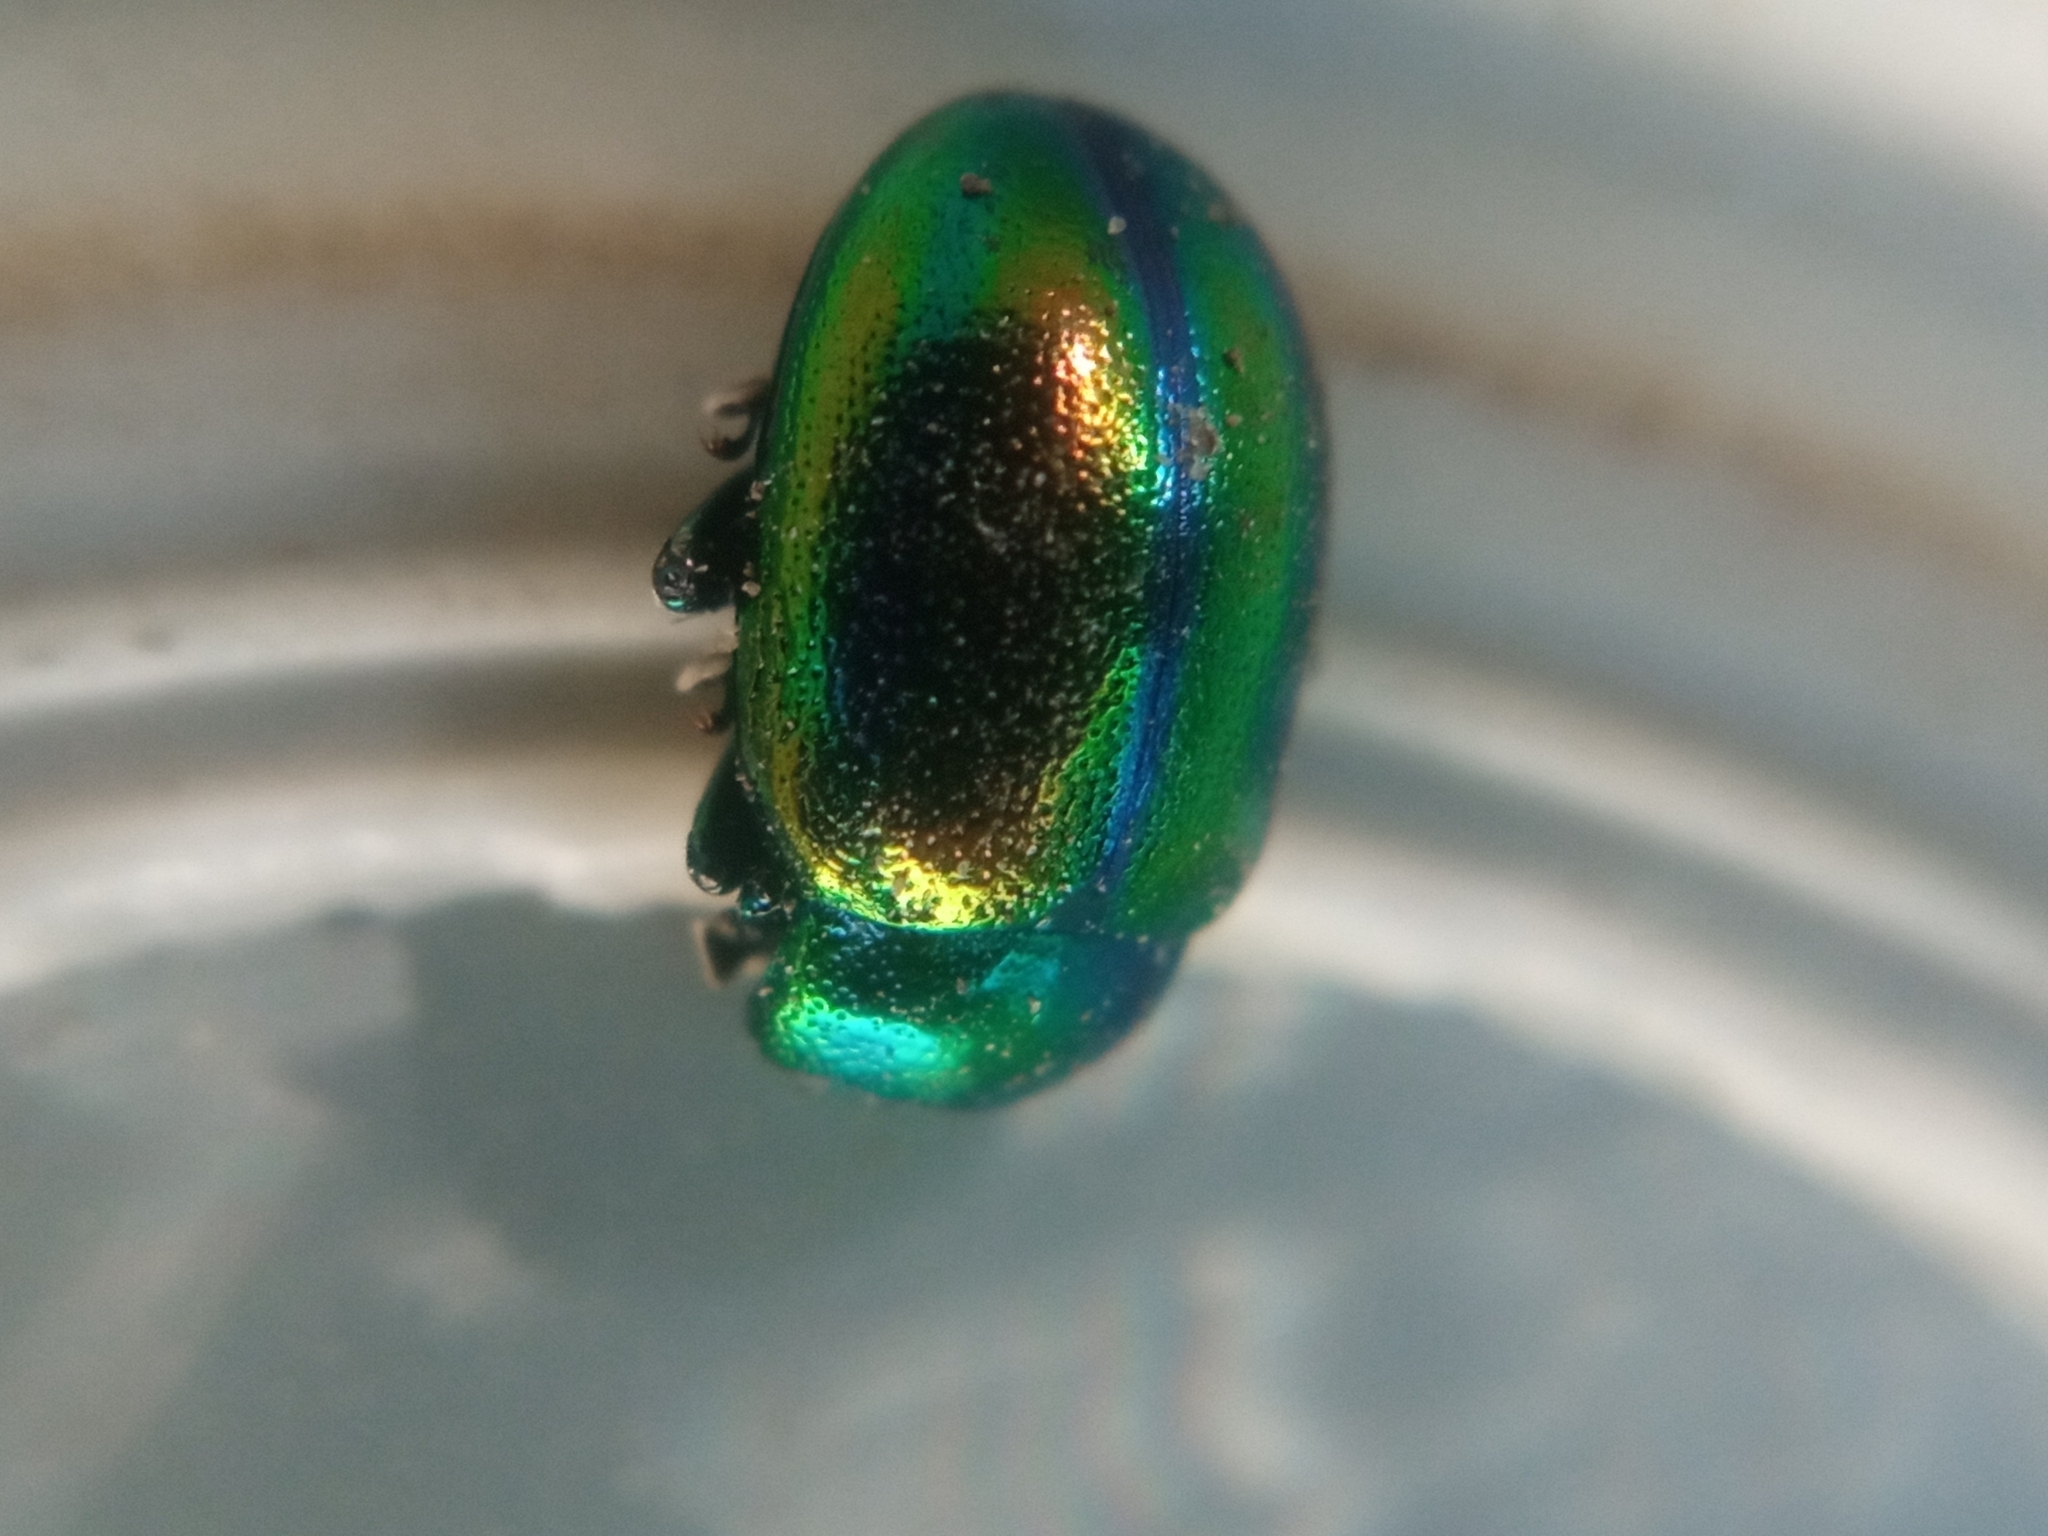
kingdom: Animalia
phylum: Arthropoda
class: Insecta
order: Coleoptera
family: Chrysomelidae
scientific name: Chrysomelidae
